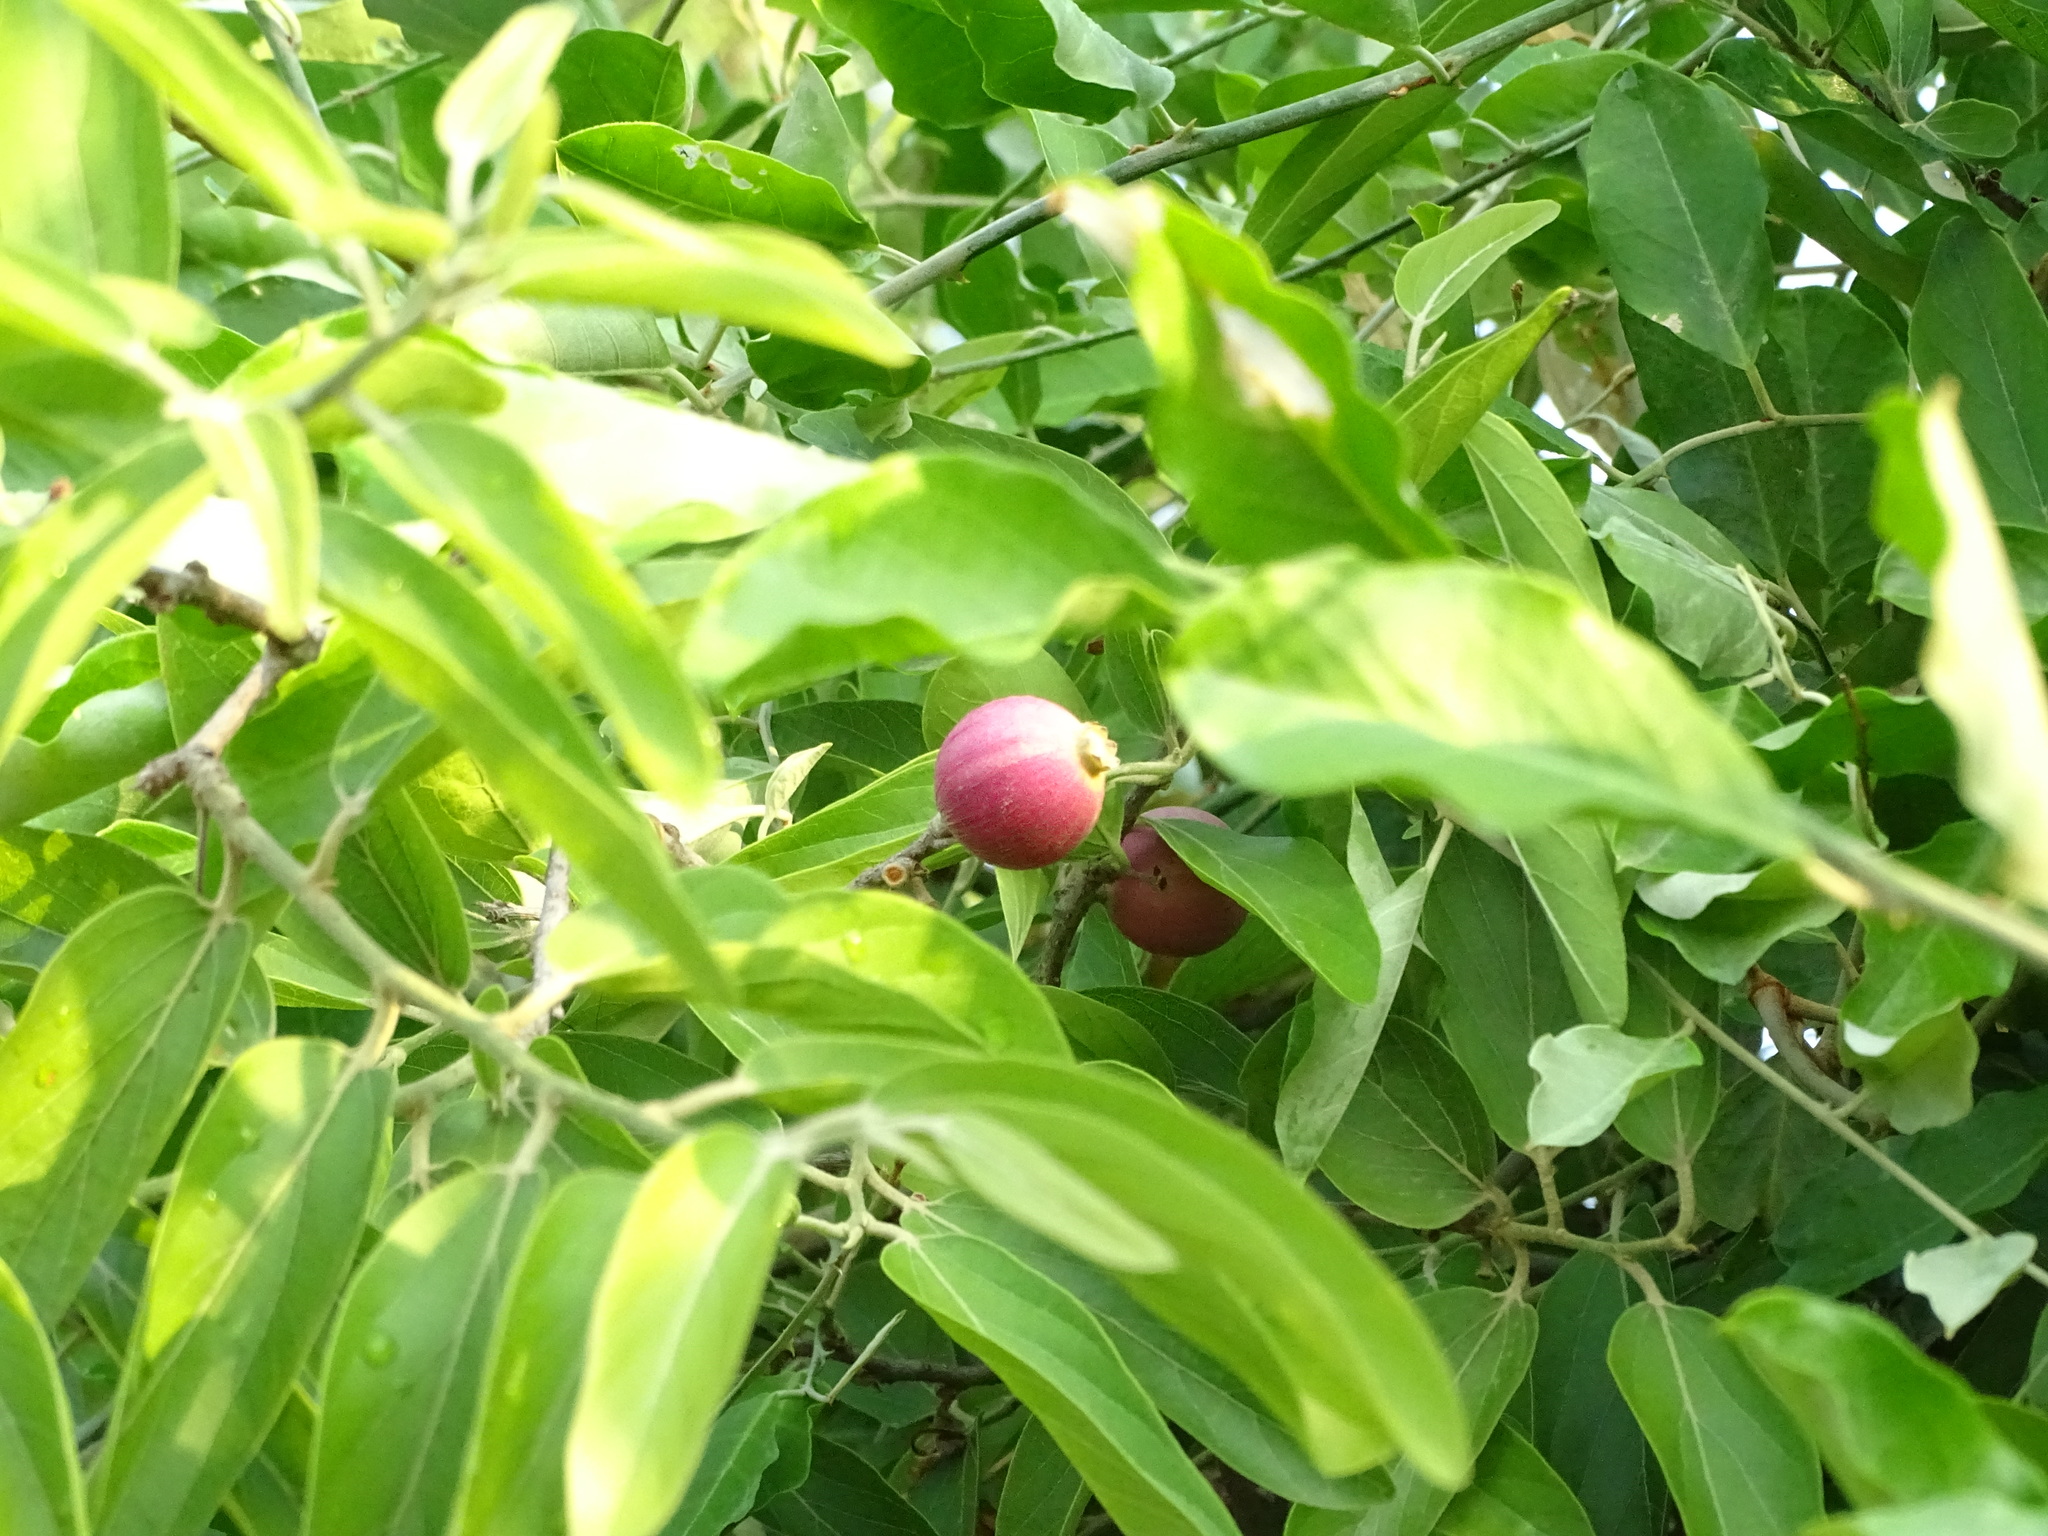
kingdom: Plantae
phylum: Tracheophyta
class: Magnoliopsida
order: Cornales
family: Cornaceae
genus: Alangium
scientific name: Alangium salviifolium
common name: Sage-leaf alangium
